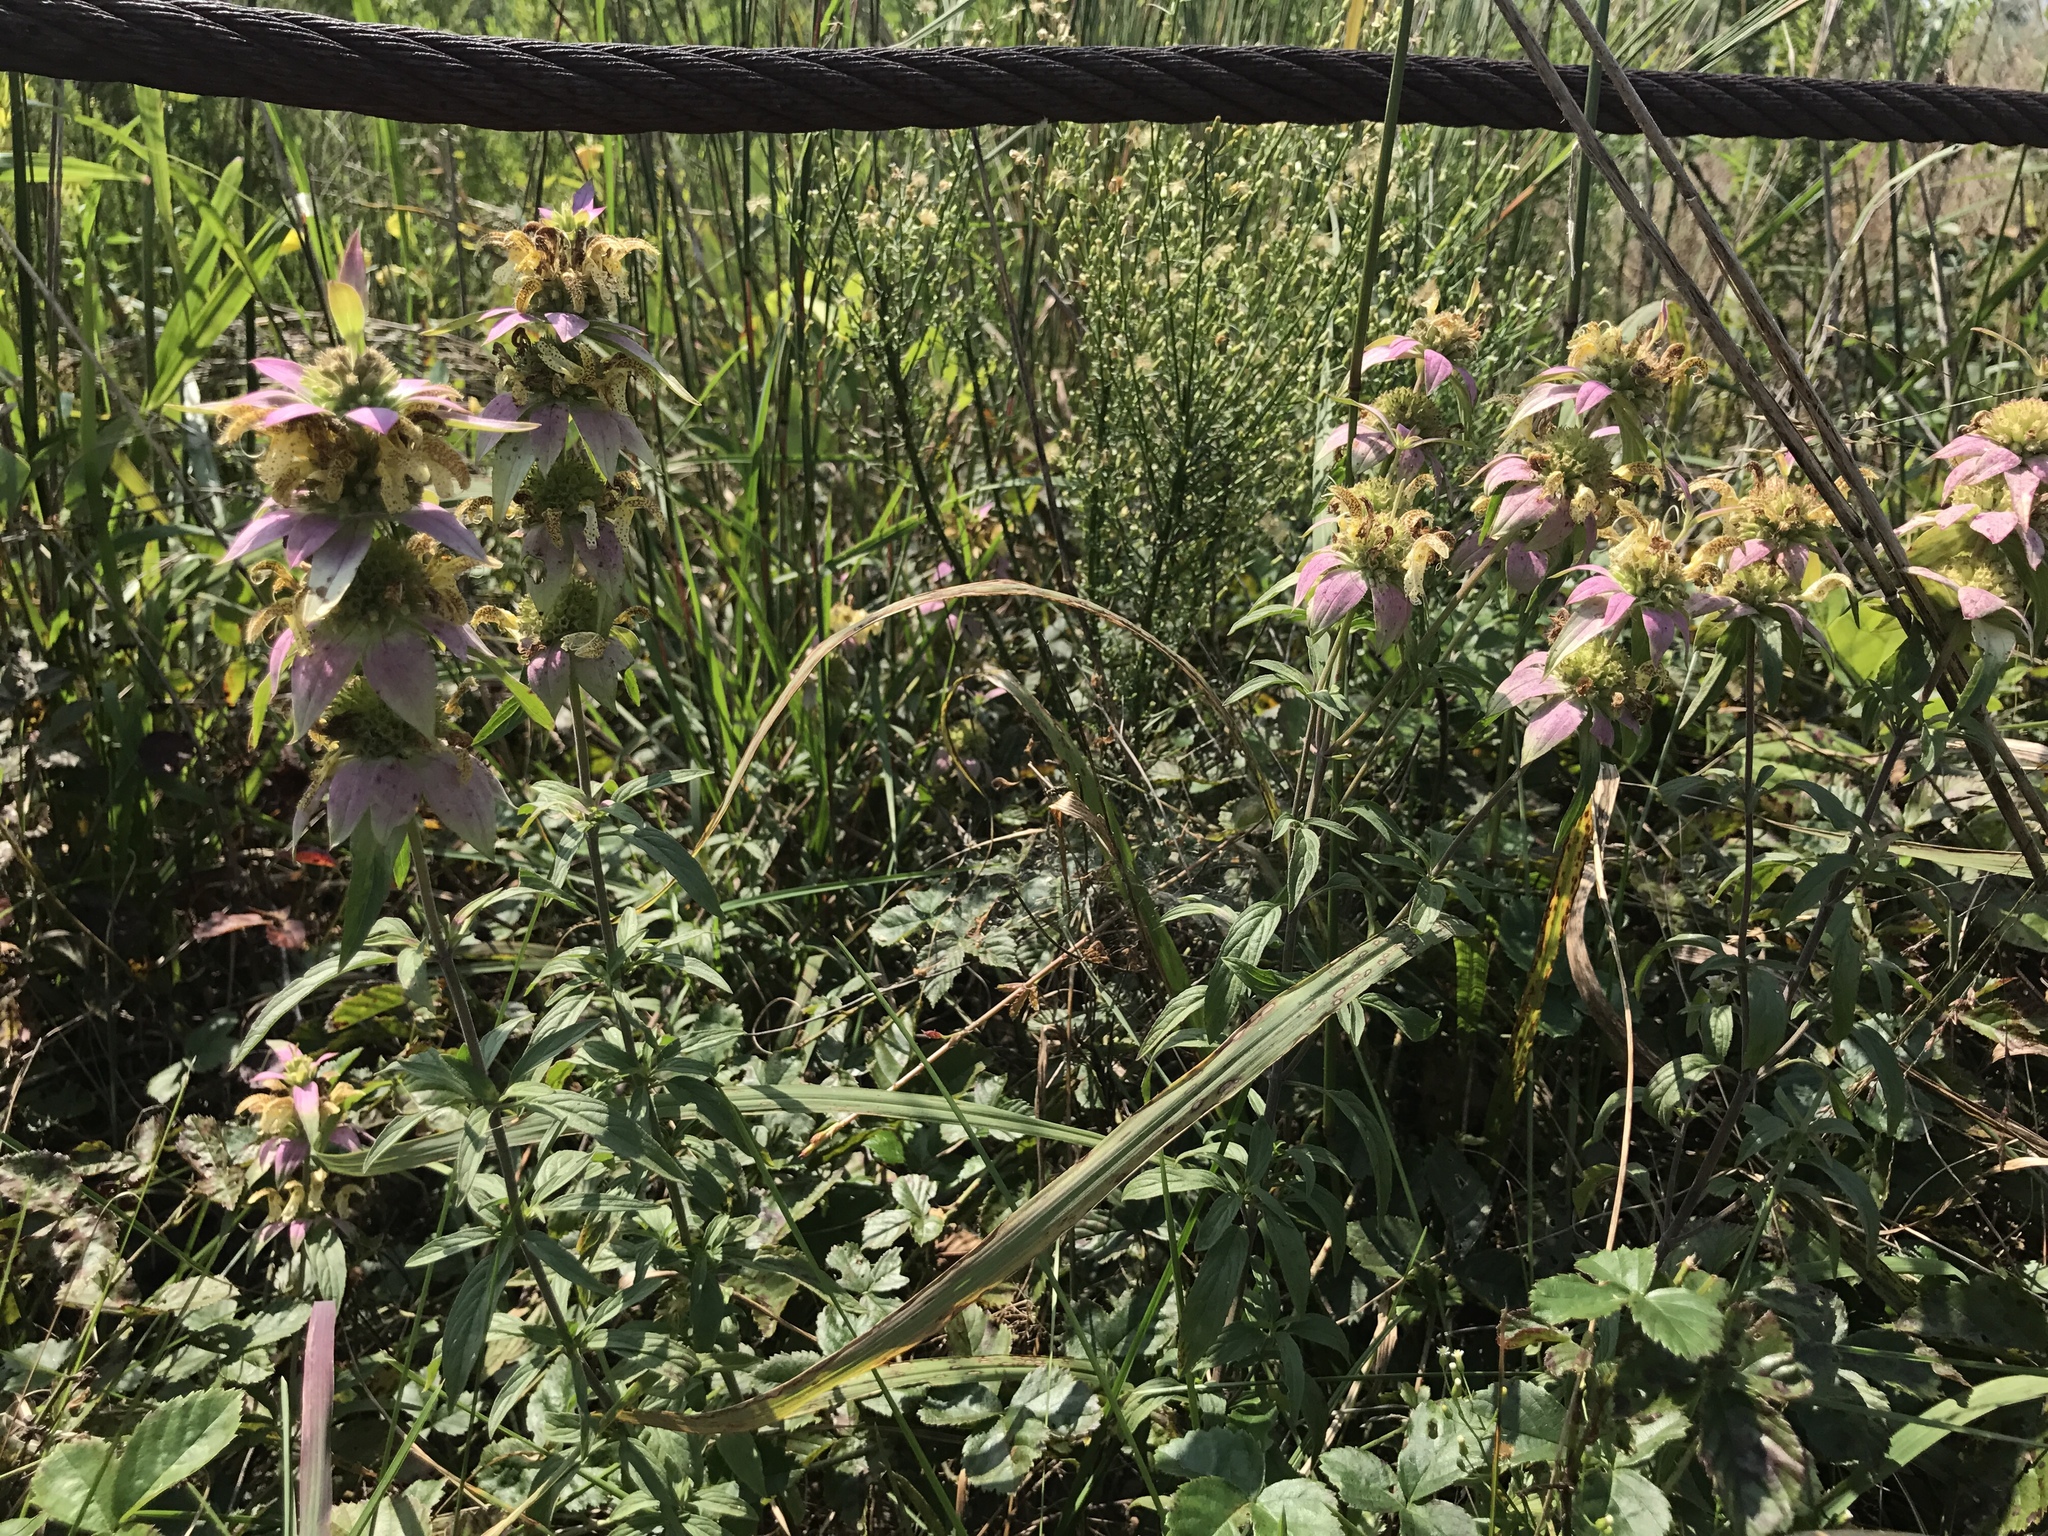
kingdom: Plantae
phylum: Tracheophyta
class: Magnoliopsida
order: Lamiales
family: Lamiaceae
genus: Monarda
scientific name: Monarda punctata
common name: Dotted monarda
